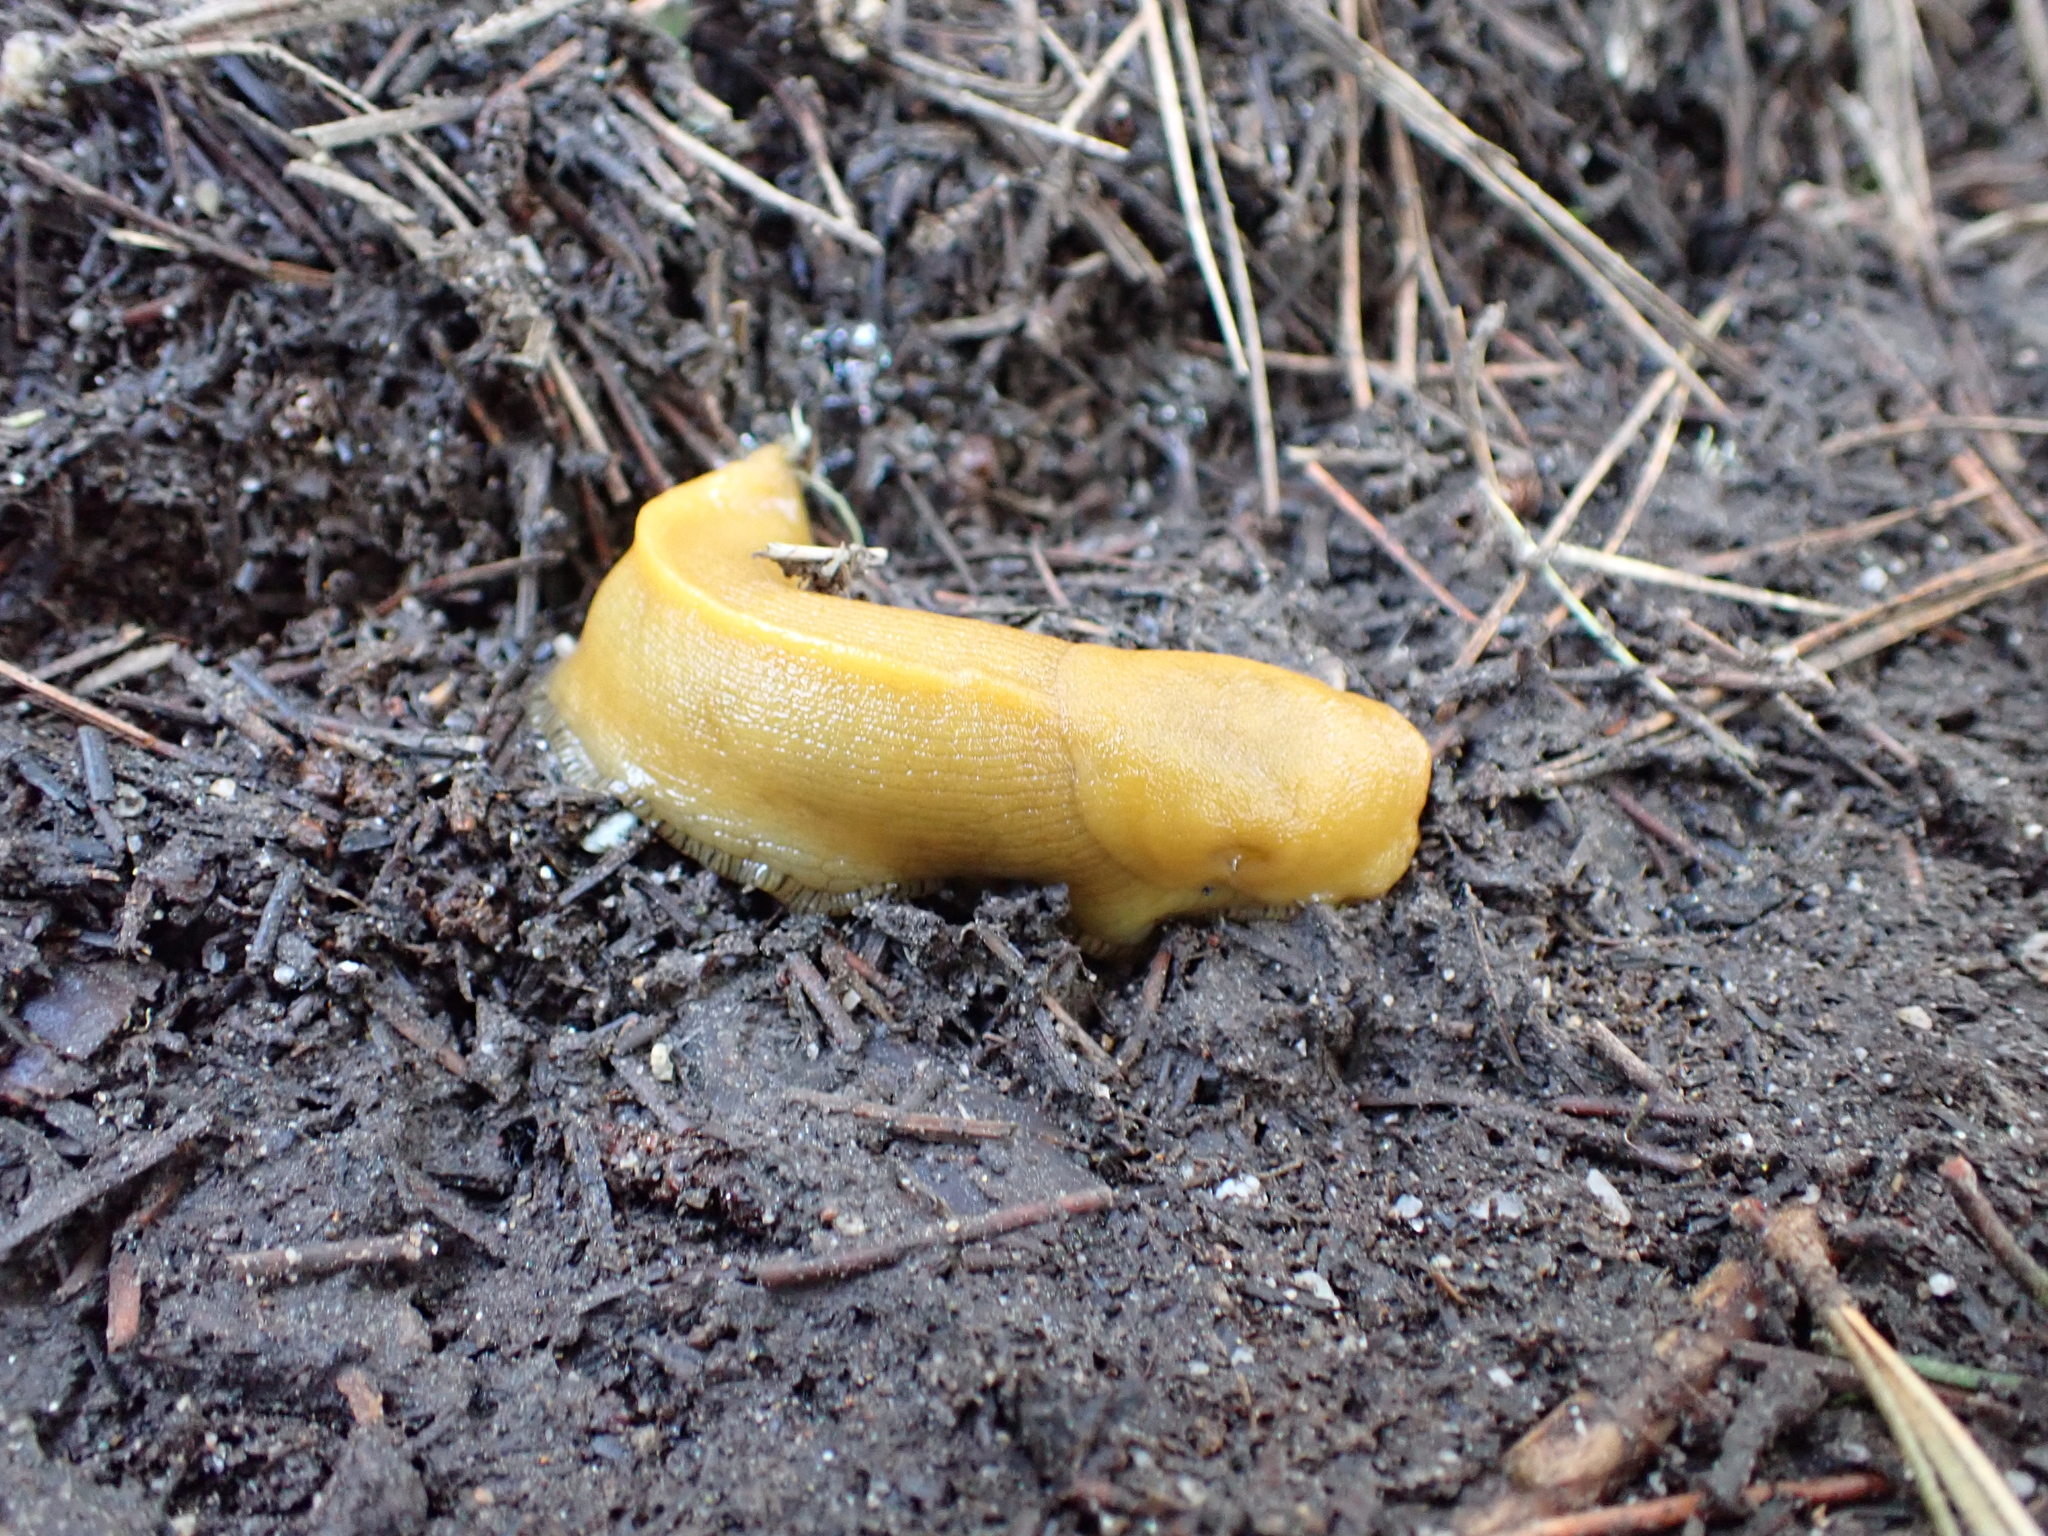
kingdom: Animalia
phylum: Mollusca
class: Gastropoda
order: Stylommatophora
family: Ariolimacidae
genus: Ariolimax
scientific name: Ariolimax californicus
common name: California banana slug
